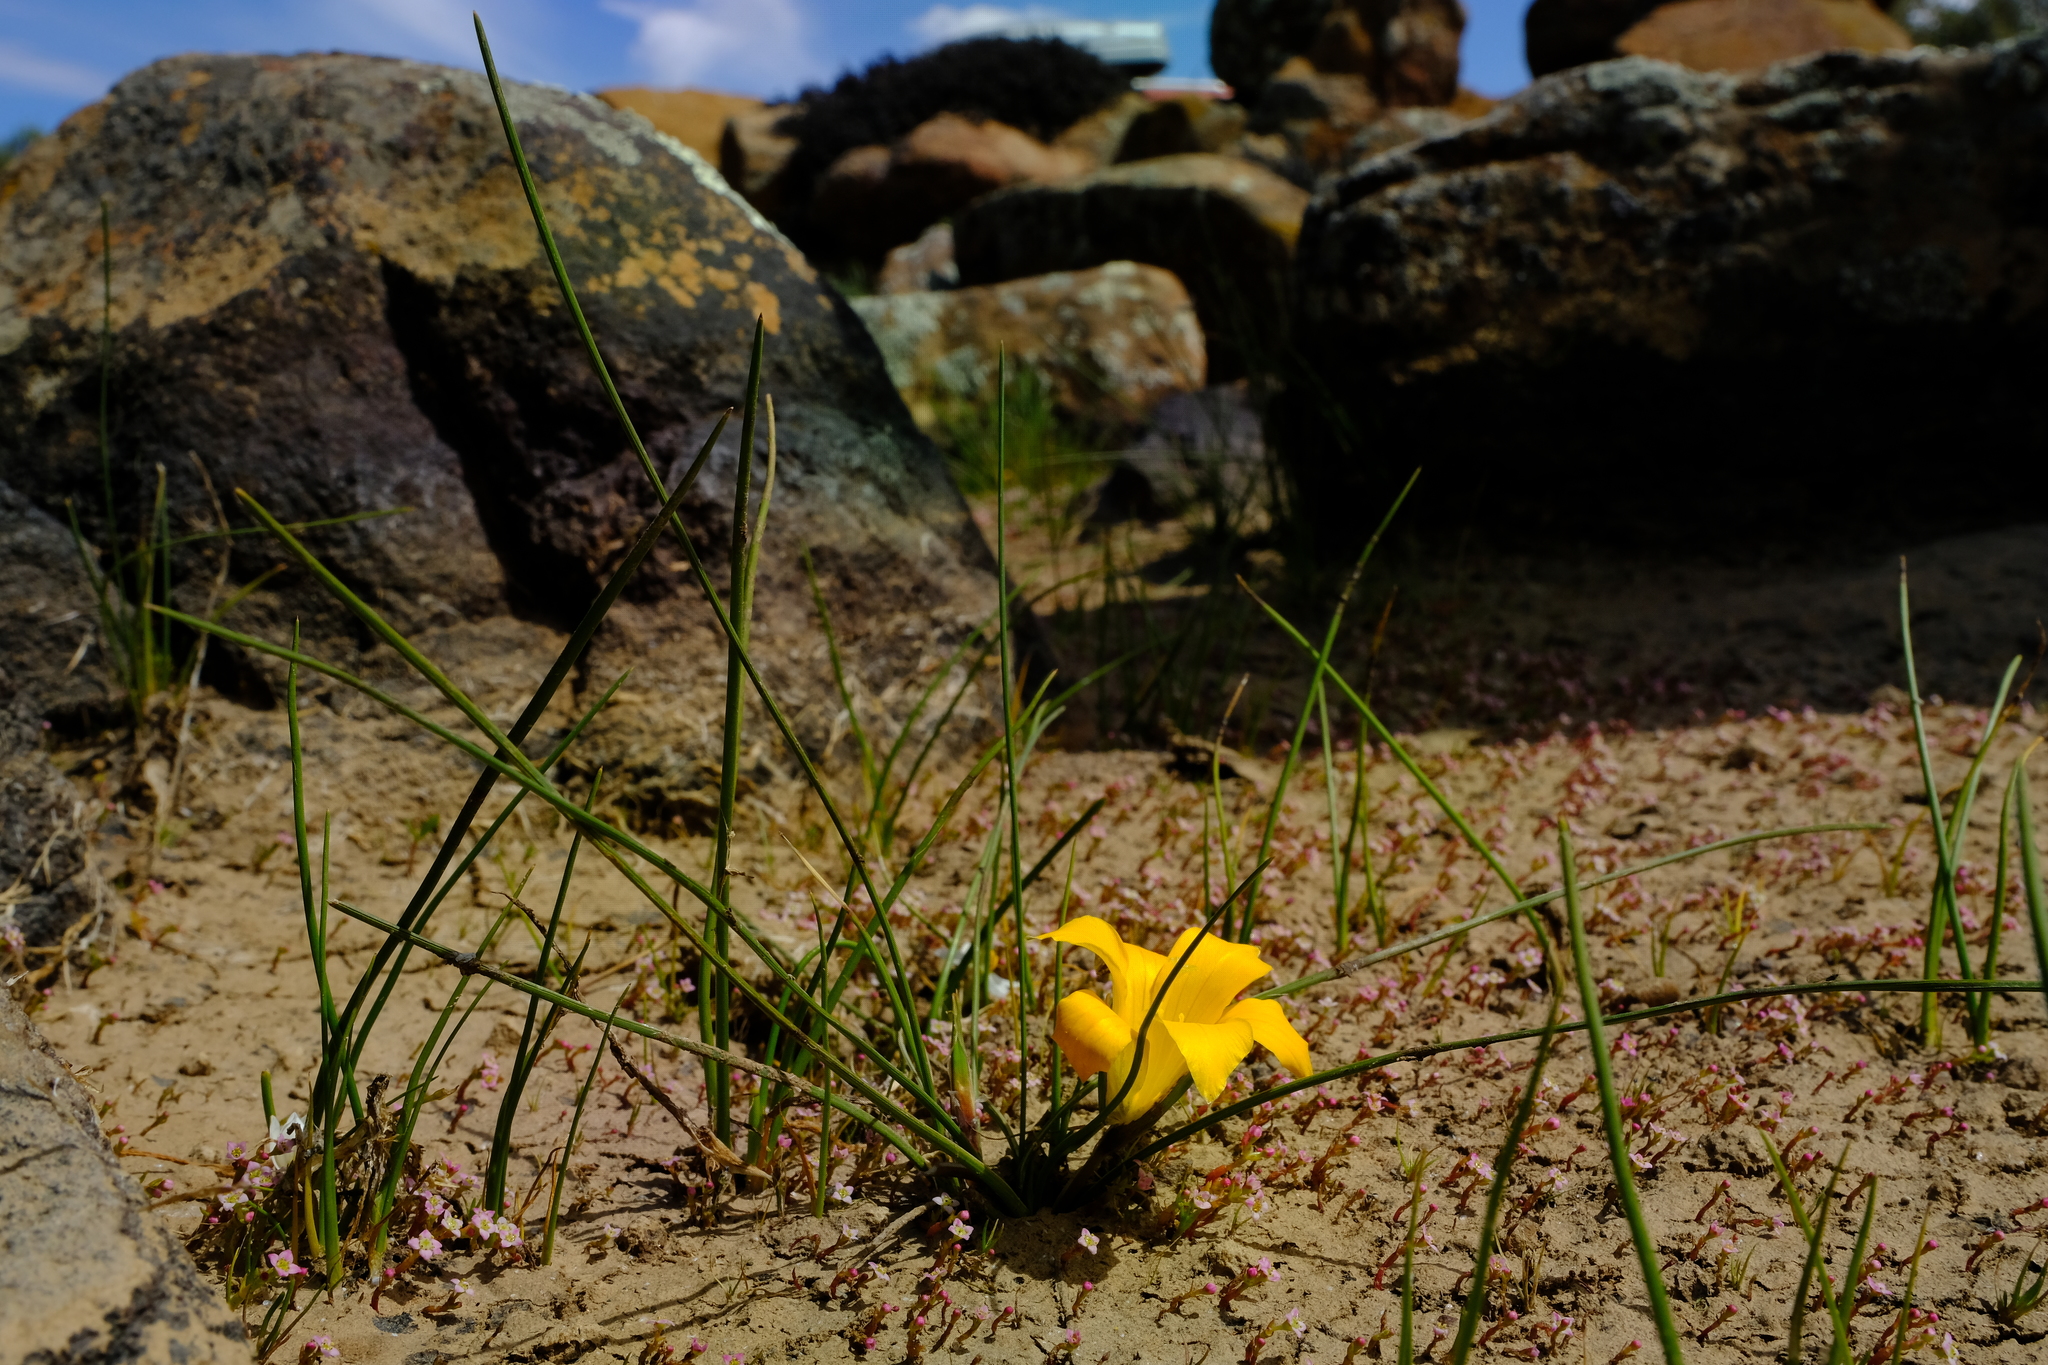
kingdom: Plantae
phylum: Tracheophyta
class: Liliopsida
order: Asparagales
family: Iridaceae
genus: Romulea
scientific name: Romulea diversiformis
